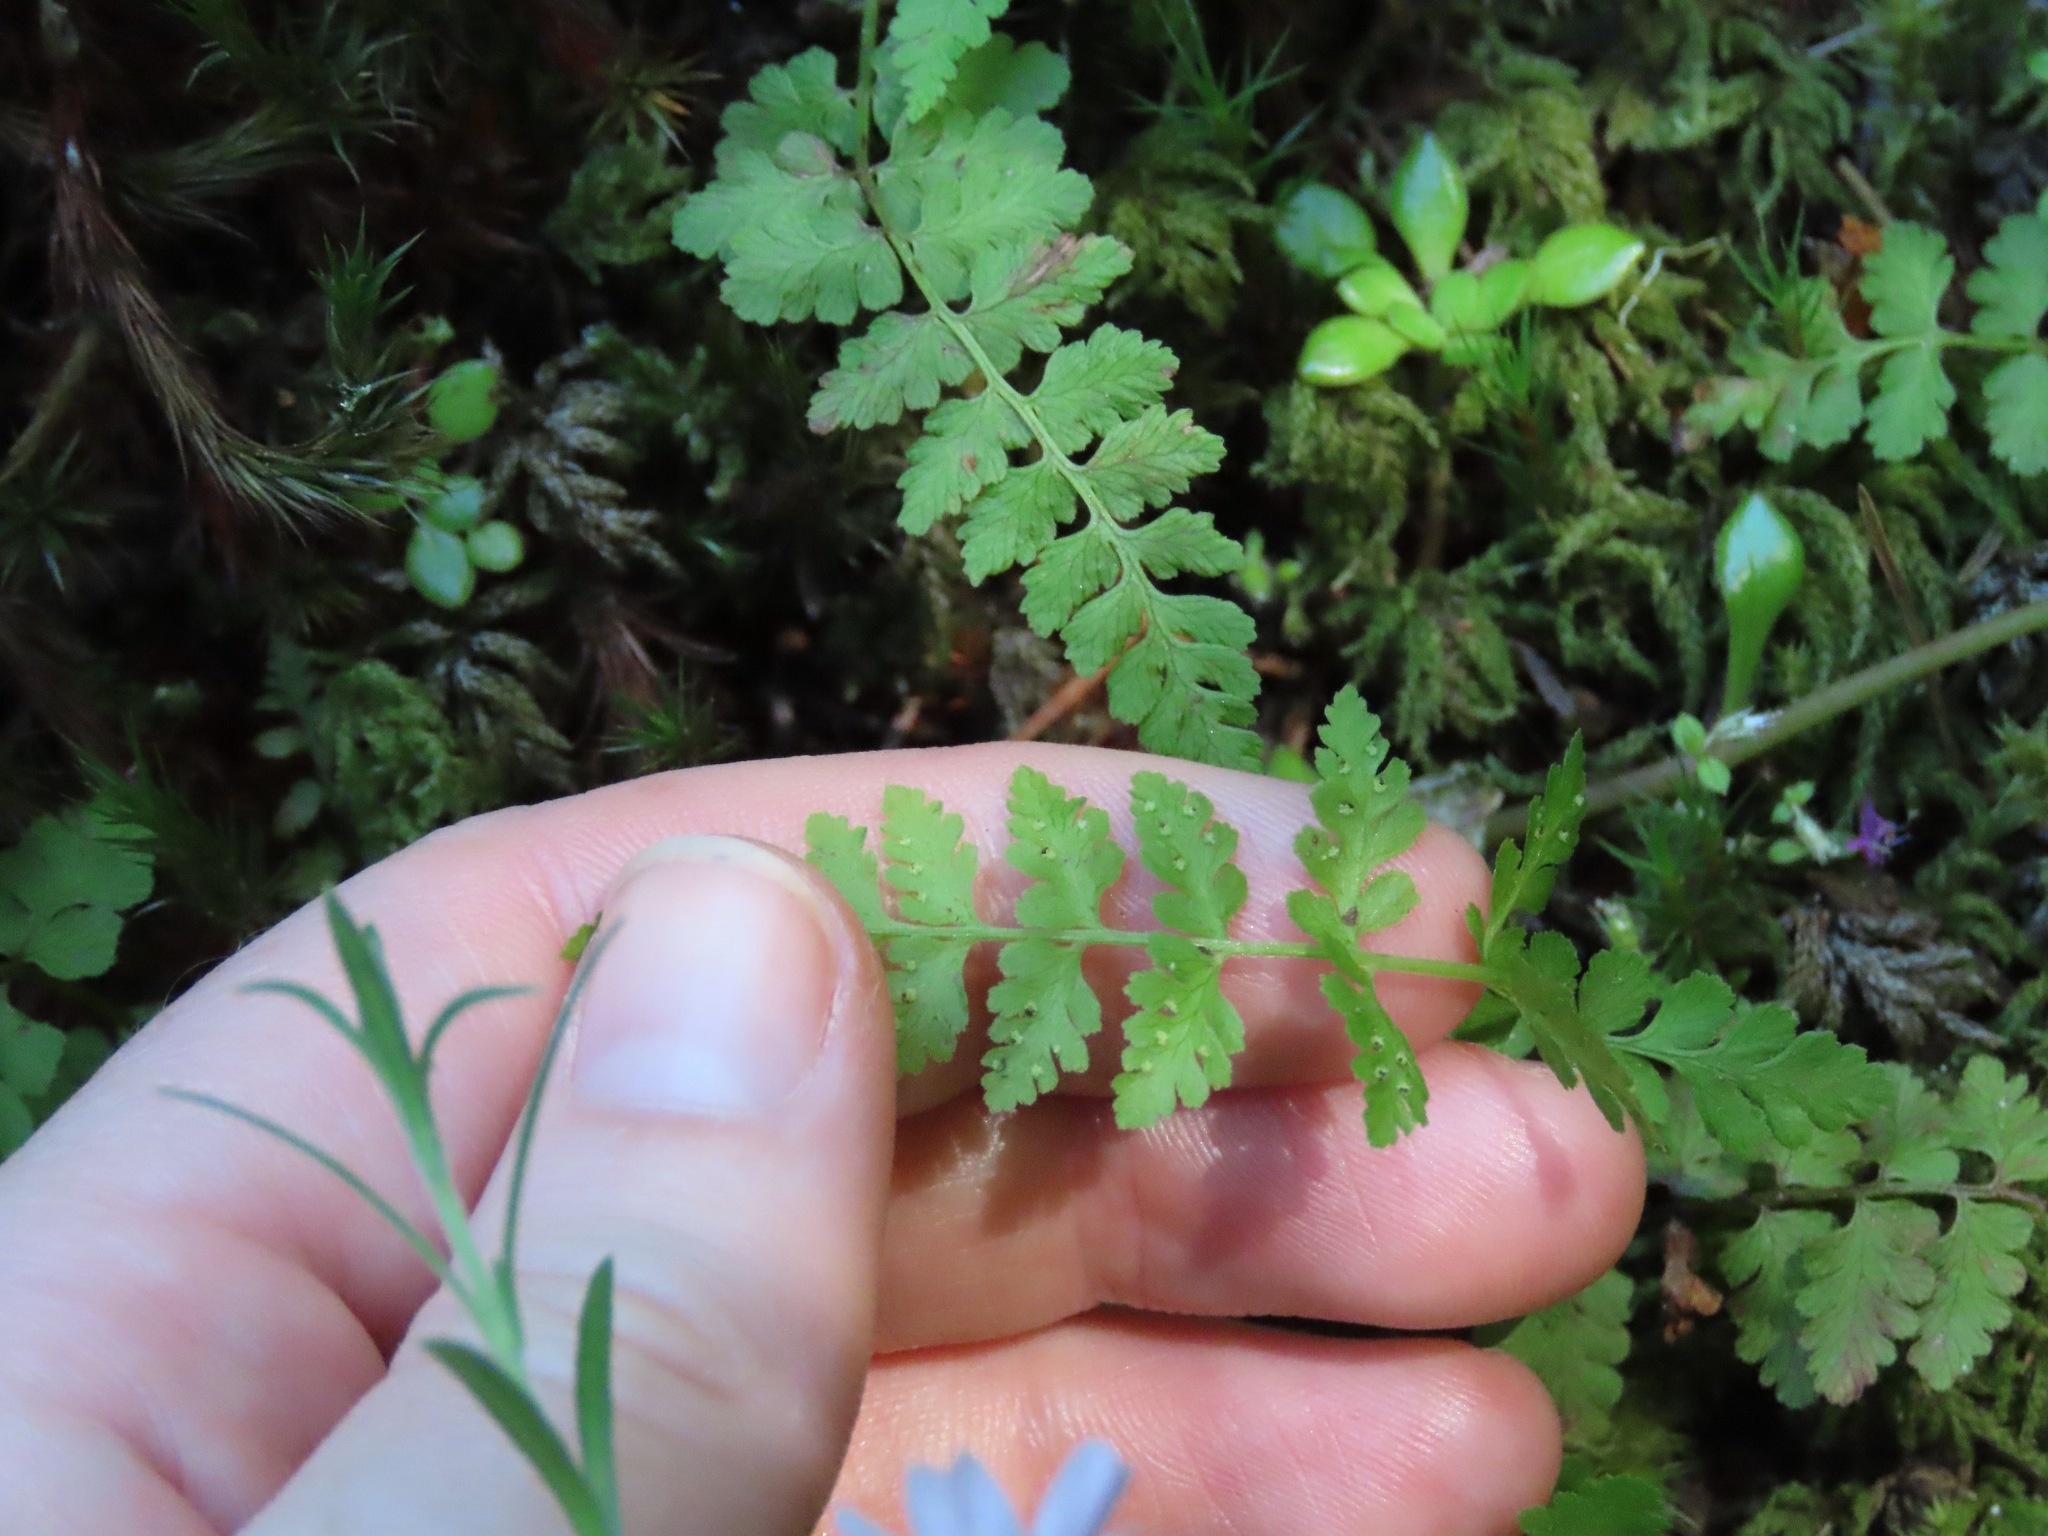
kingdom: Plantae
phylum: Tracheophyta
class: Polypodiopsida
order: Polypodiales
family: Cystopteridaceae
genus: Cystopteris
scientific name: Cystopteris fragilis
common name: Brittle bladder fern
